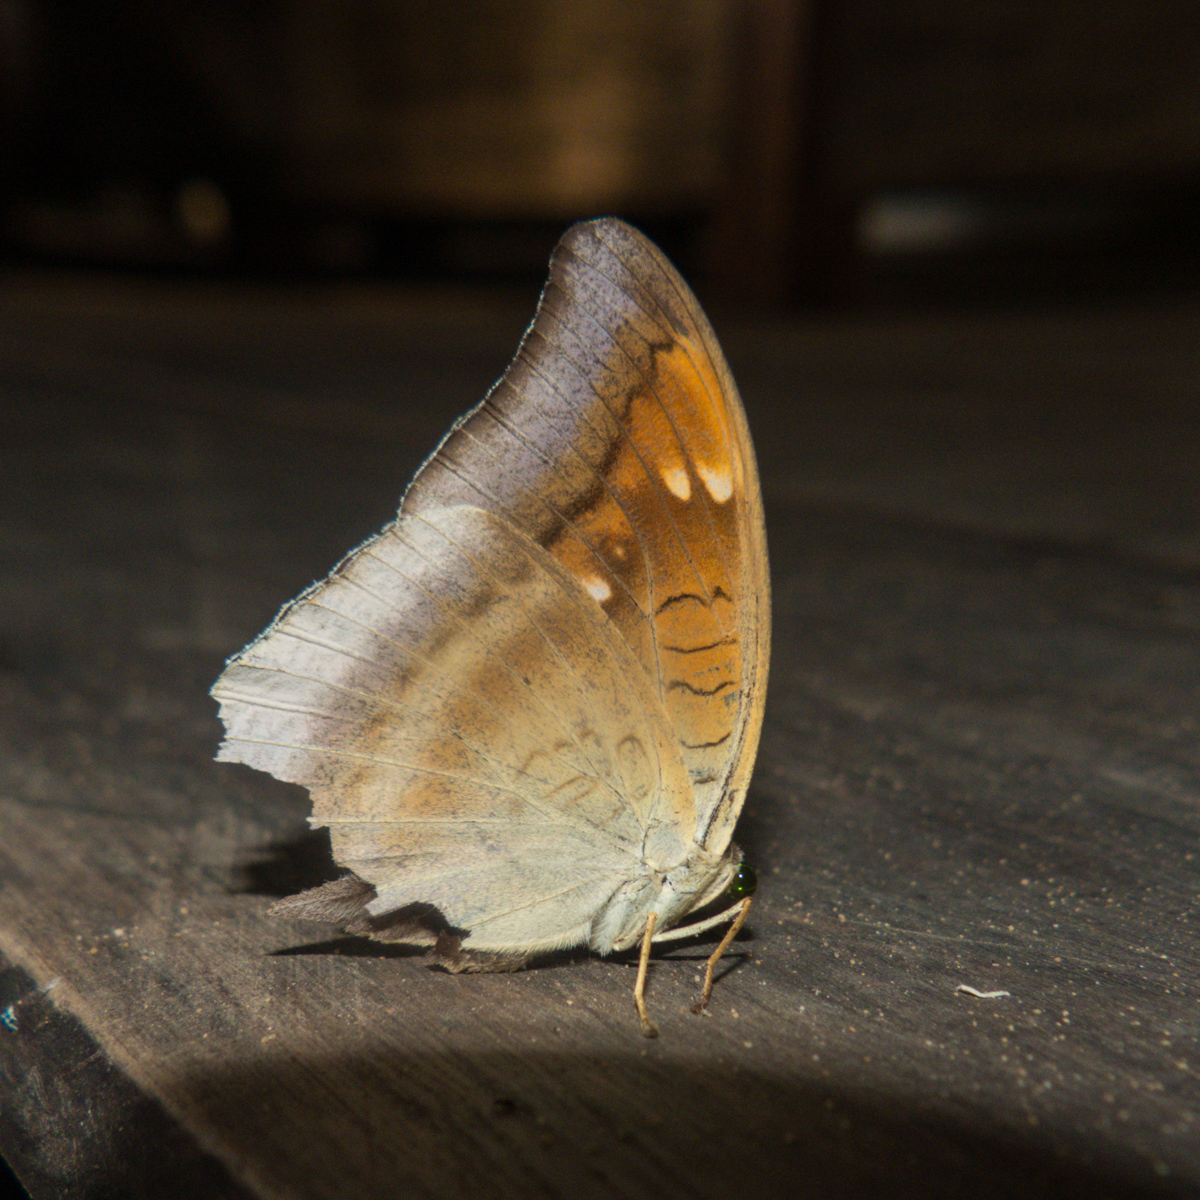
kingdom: Animalia
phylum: Arthropoda
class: Insecta
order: Lepidoptera
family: Nymphalidae
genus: Euthalia
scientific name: Euthalia aconthea
